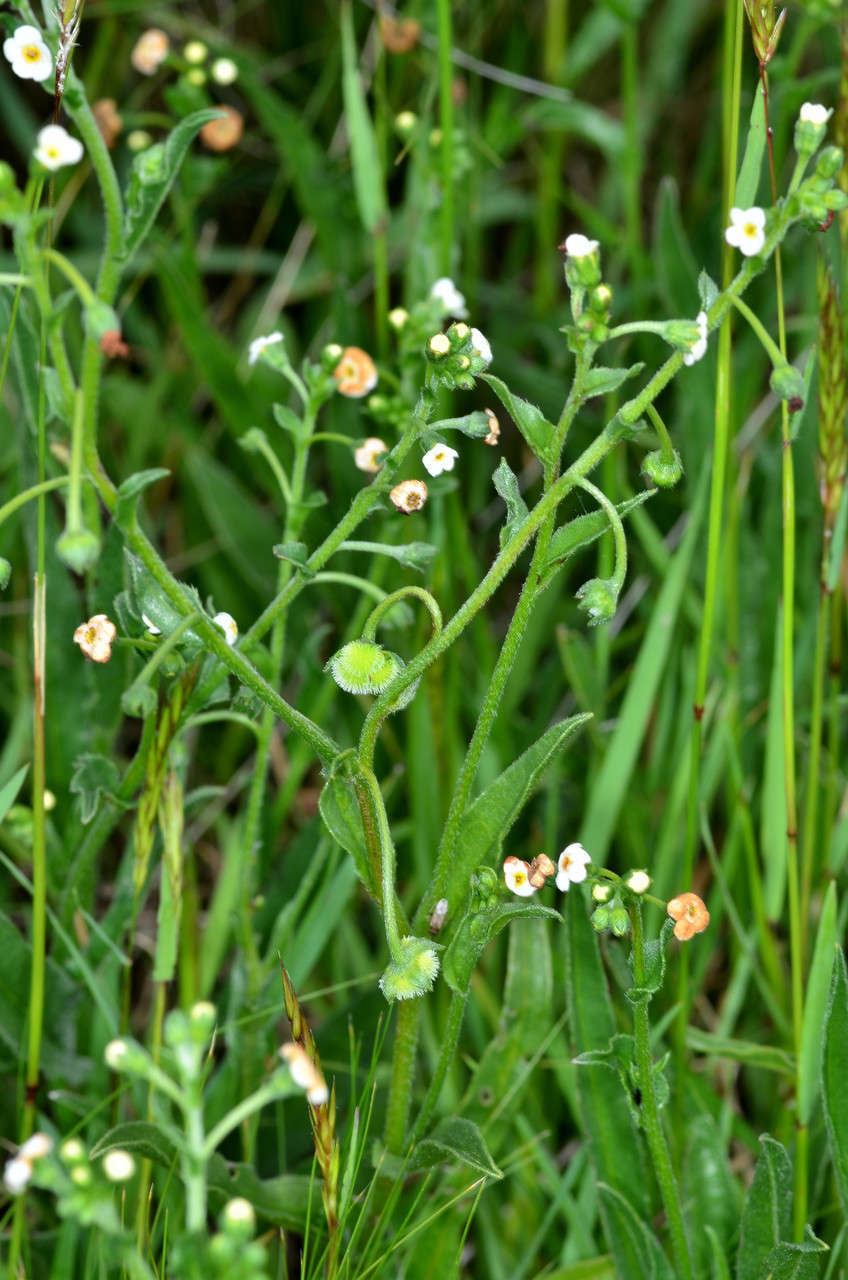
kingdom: Plantae
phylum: Tracheophyta
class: Magnoliopsida
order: Boraginales
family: Boraginaceae
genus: Hackelia
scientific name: Hackelia suaveolens
